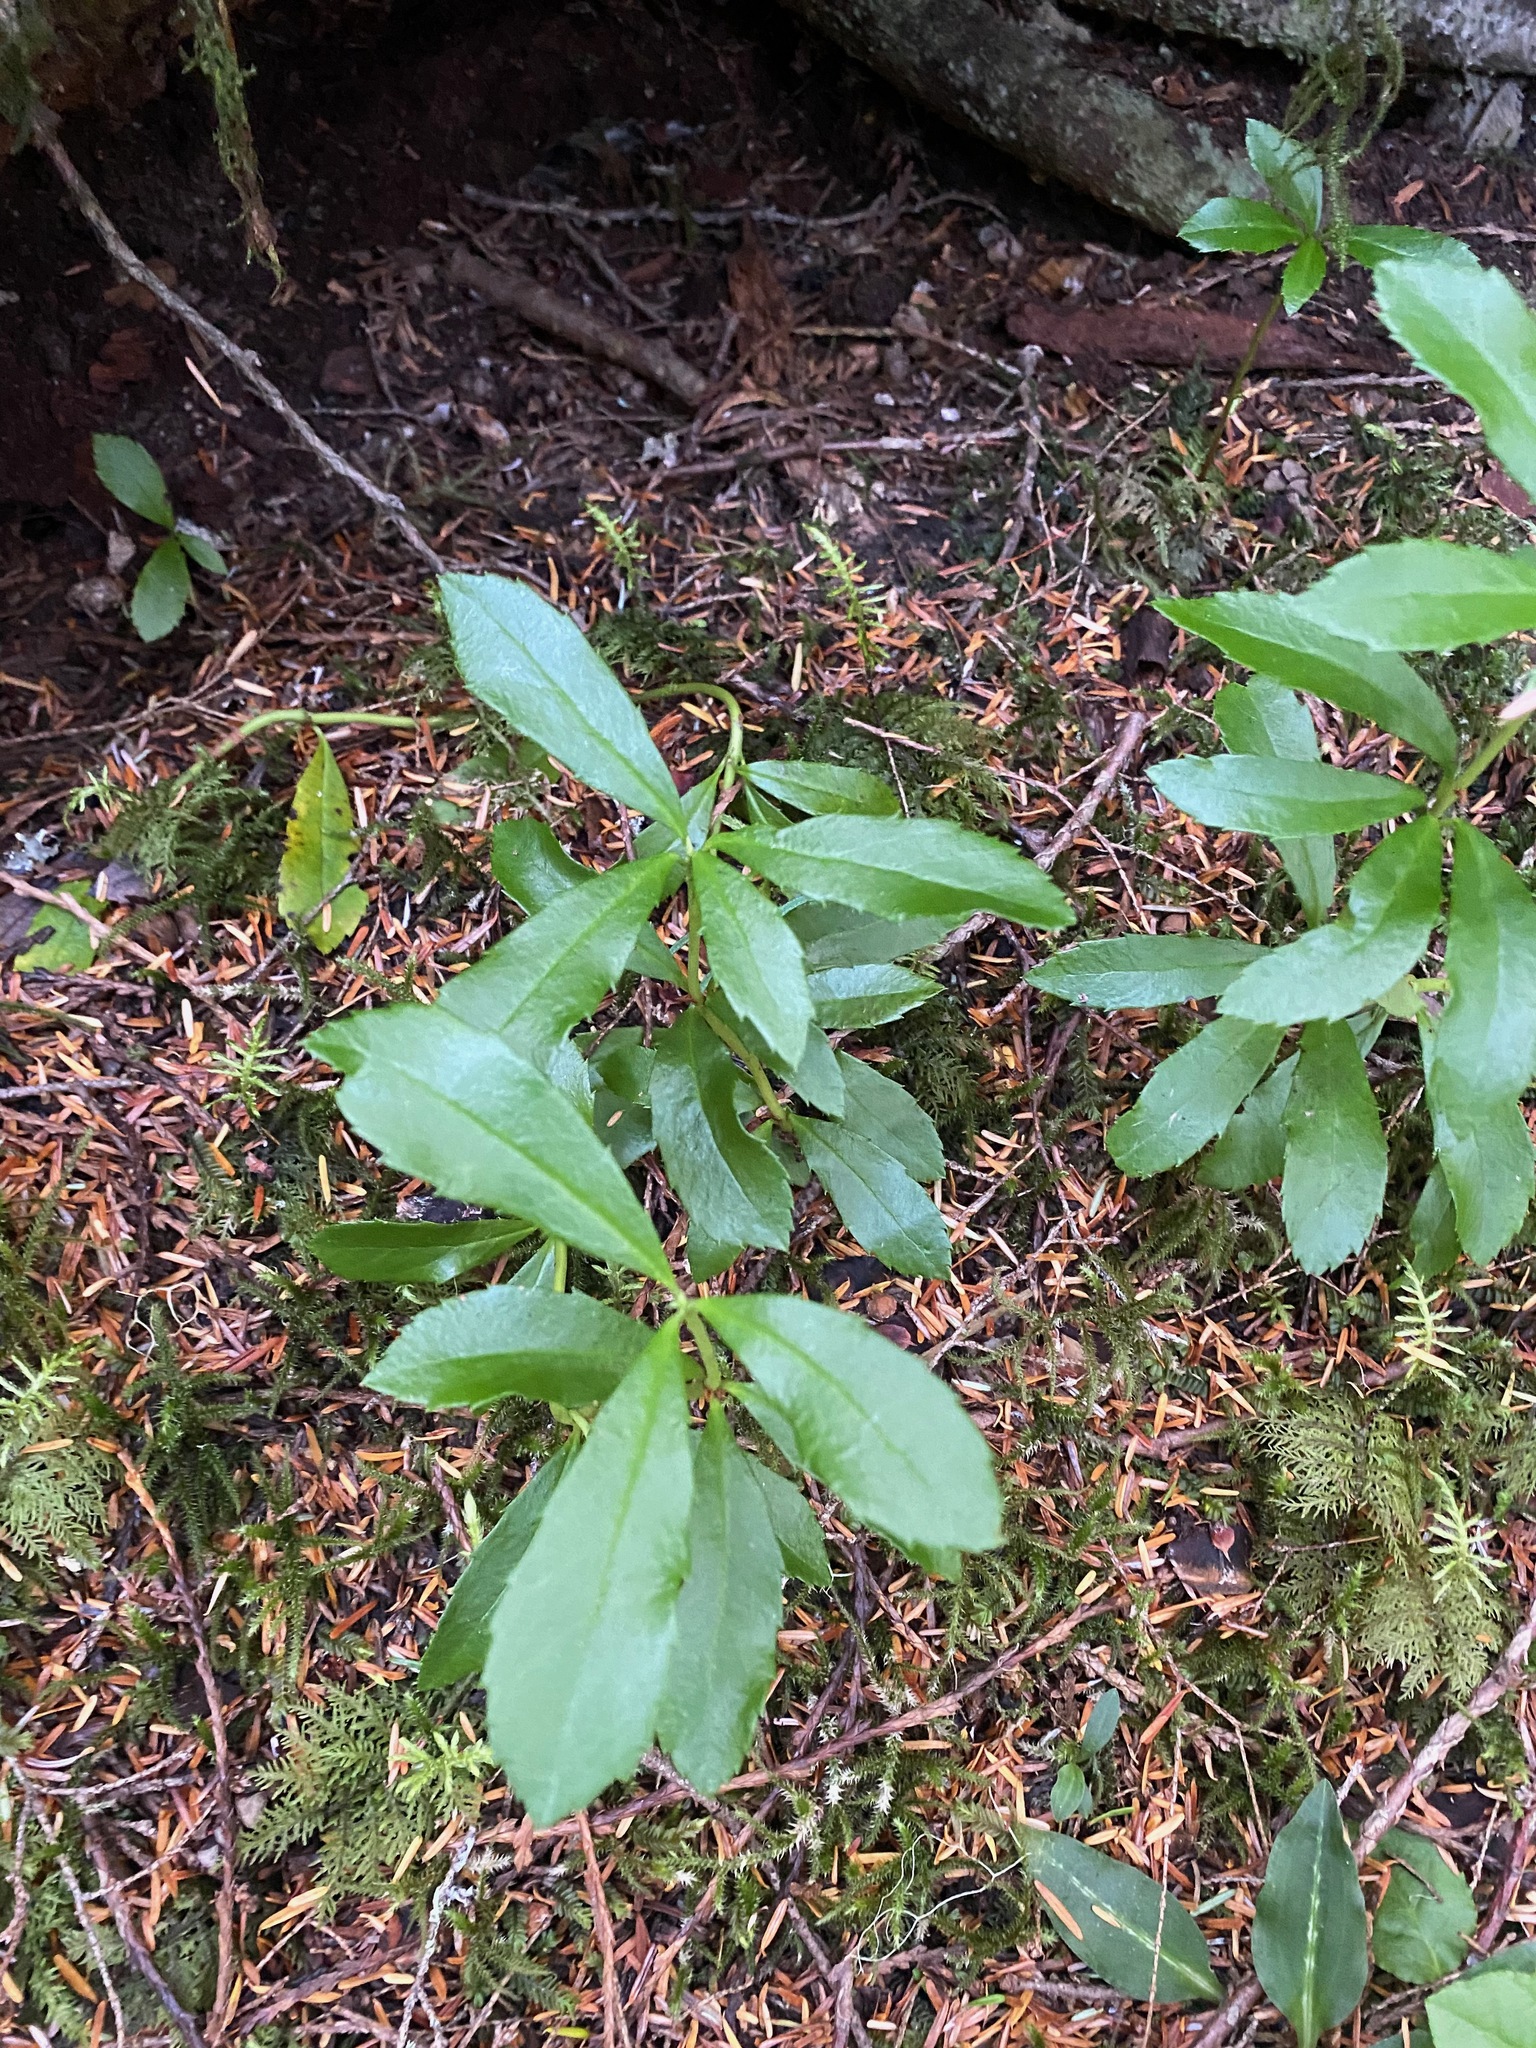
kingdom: Plantae
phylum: Tracheophyta
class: Magnoliopsida
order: Ericales
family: Ericaceae
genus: Chimaphila
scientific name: Chimaphila umbellata
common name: Pipsissewa
